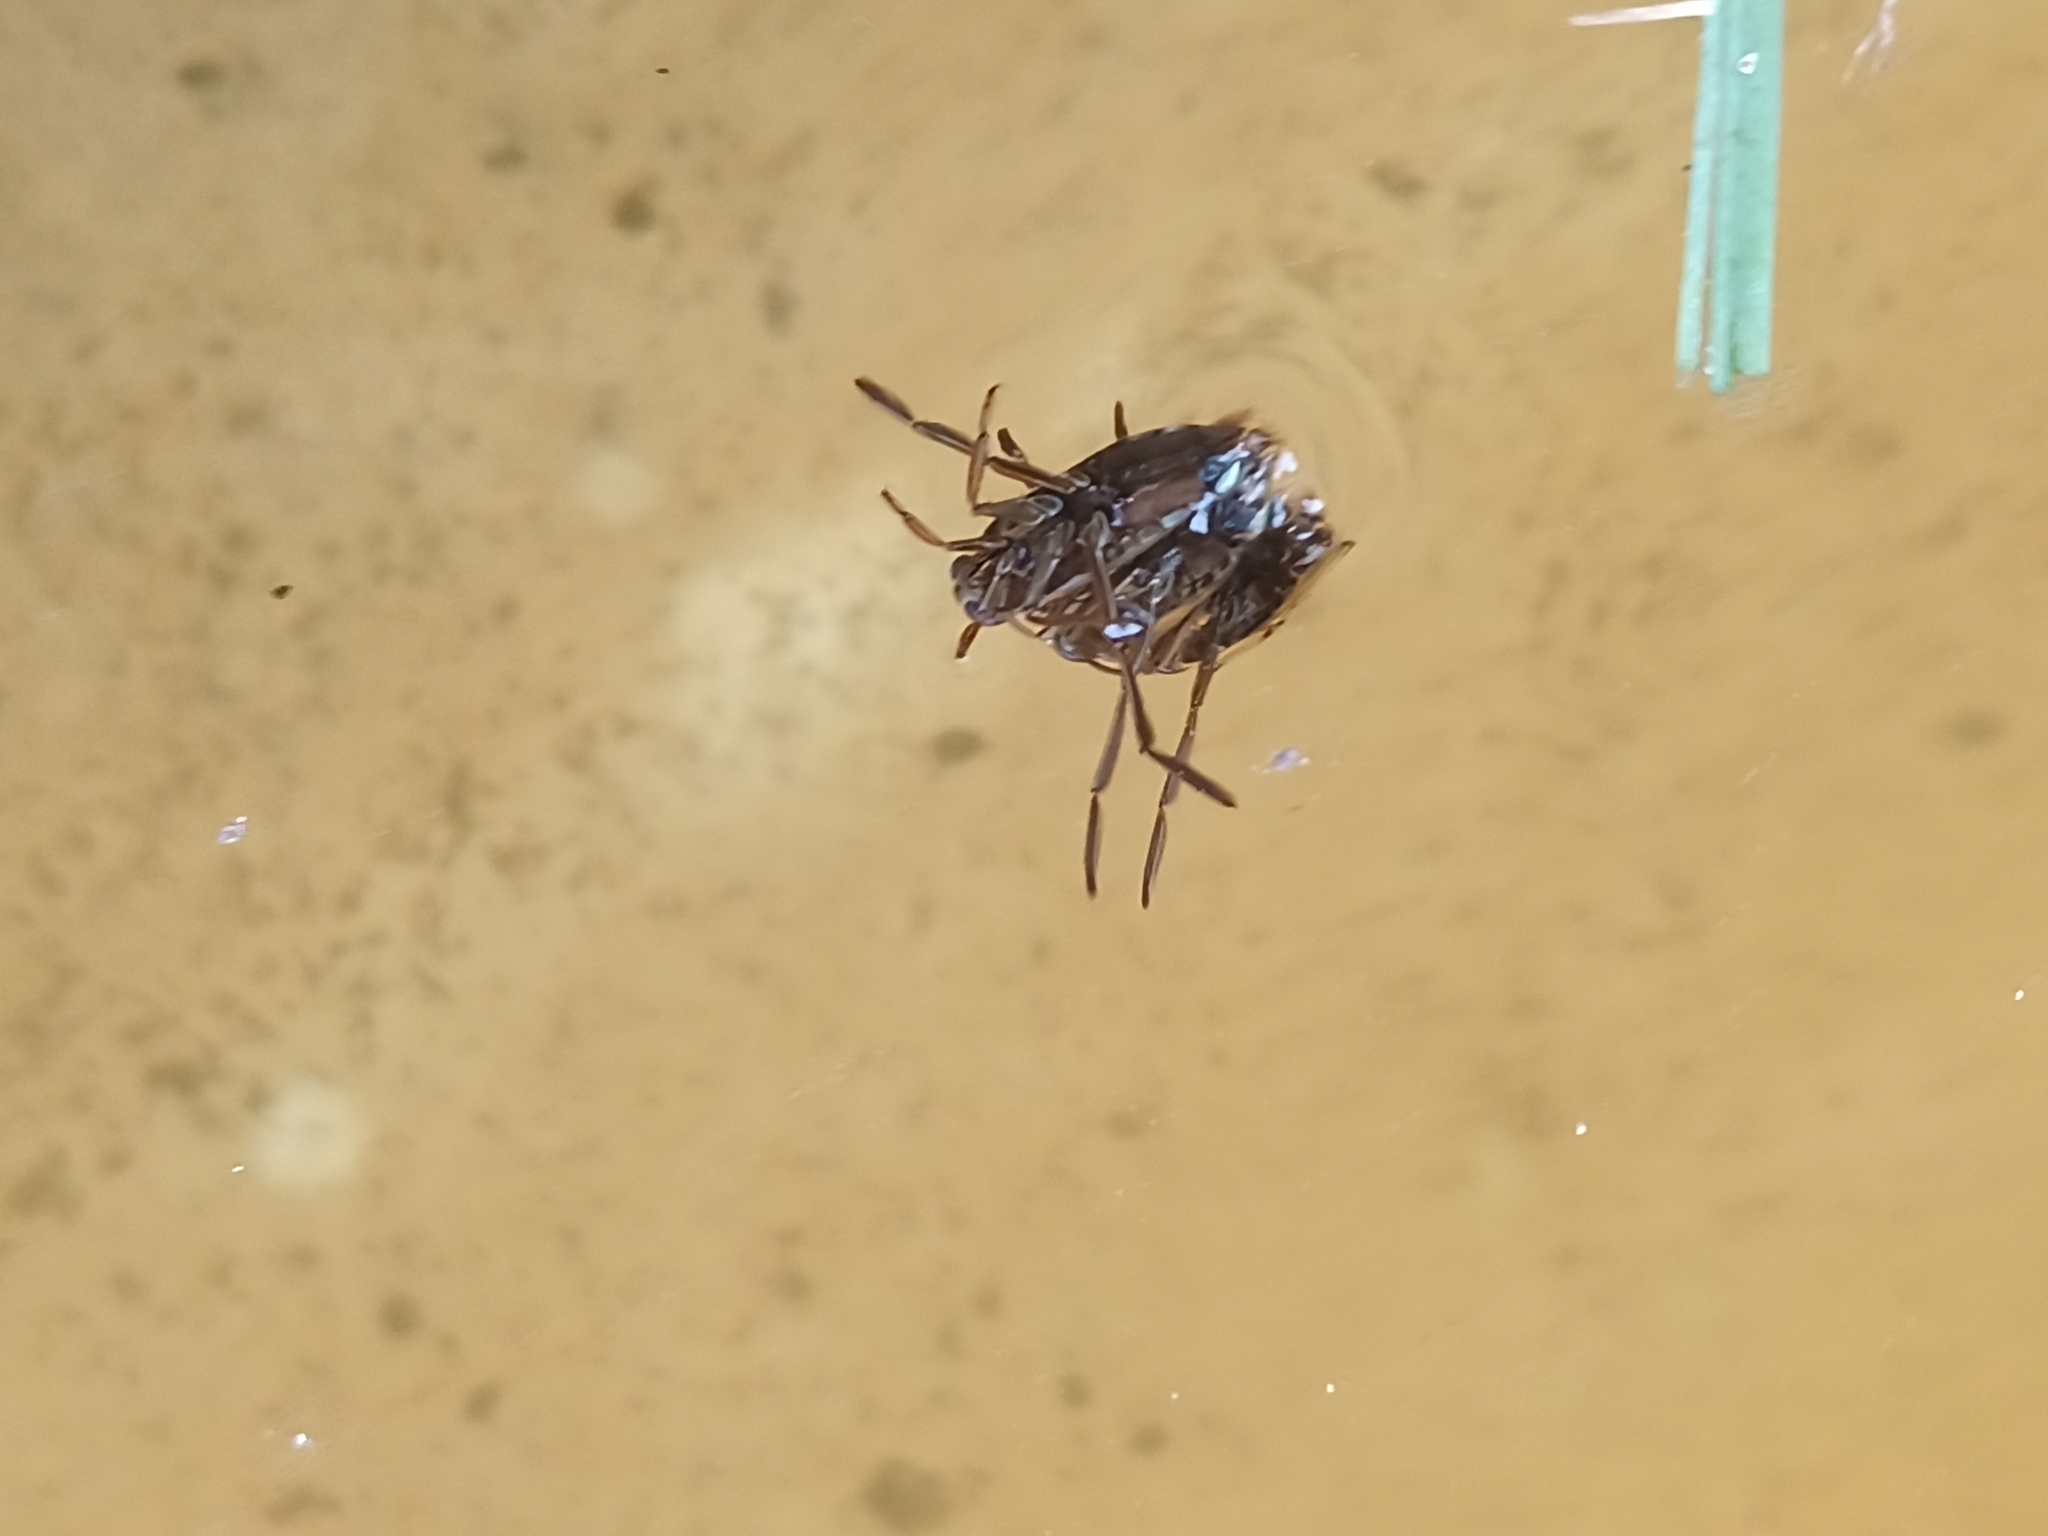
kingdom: Animalia
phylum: Arthropoda
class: Insecta
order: Hemiptera
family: Notonectidae
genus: Notonecta
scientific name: Notonecta
